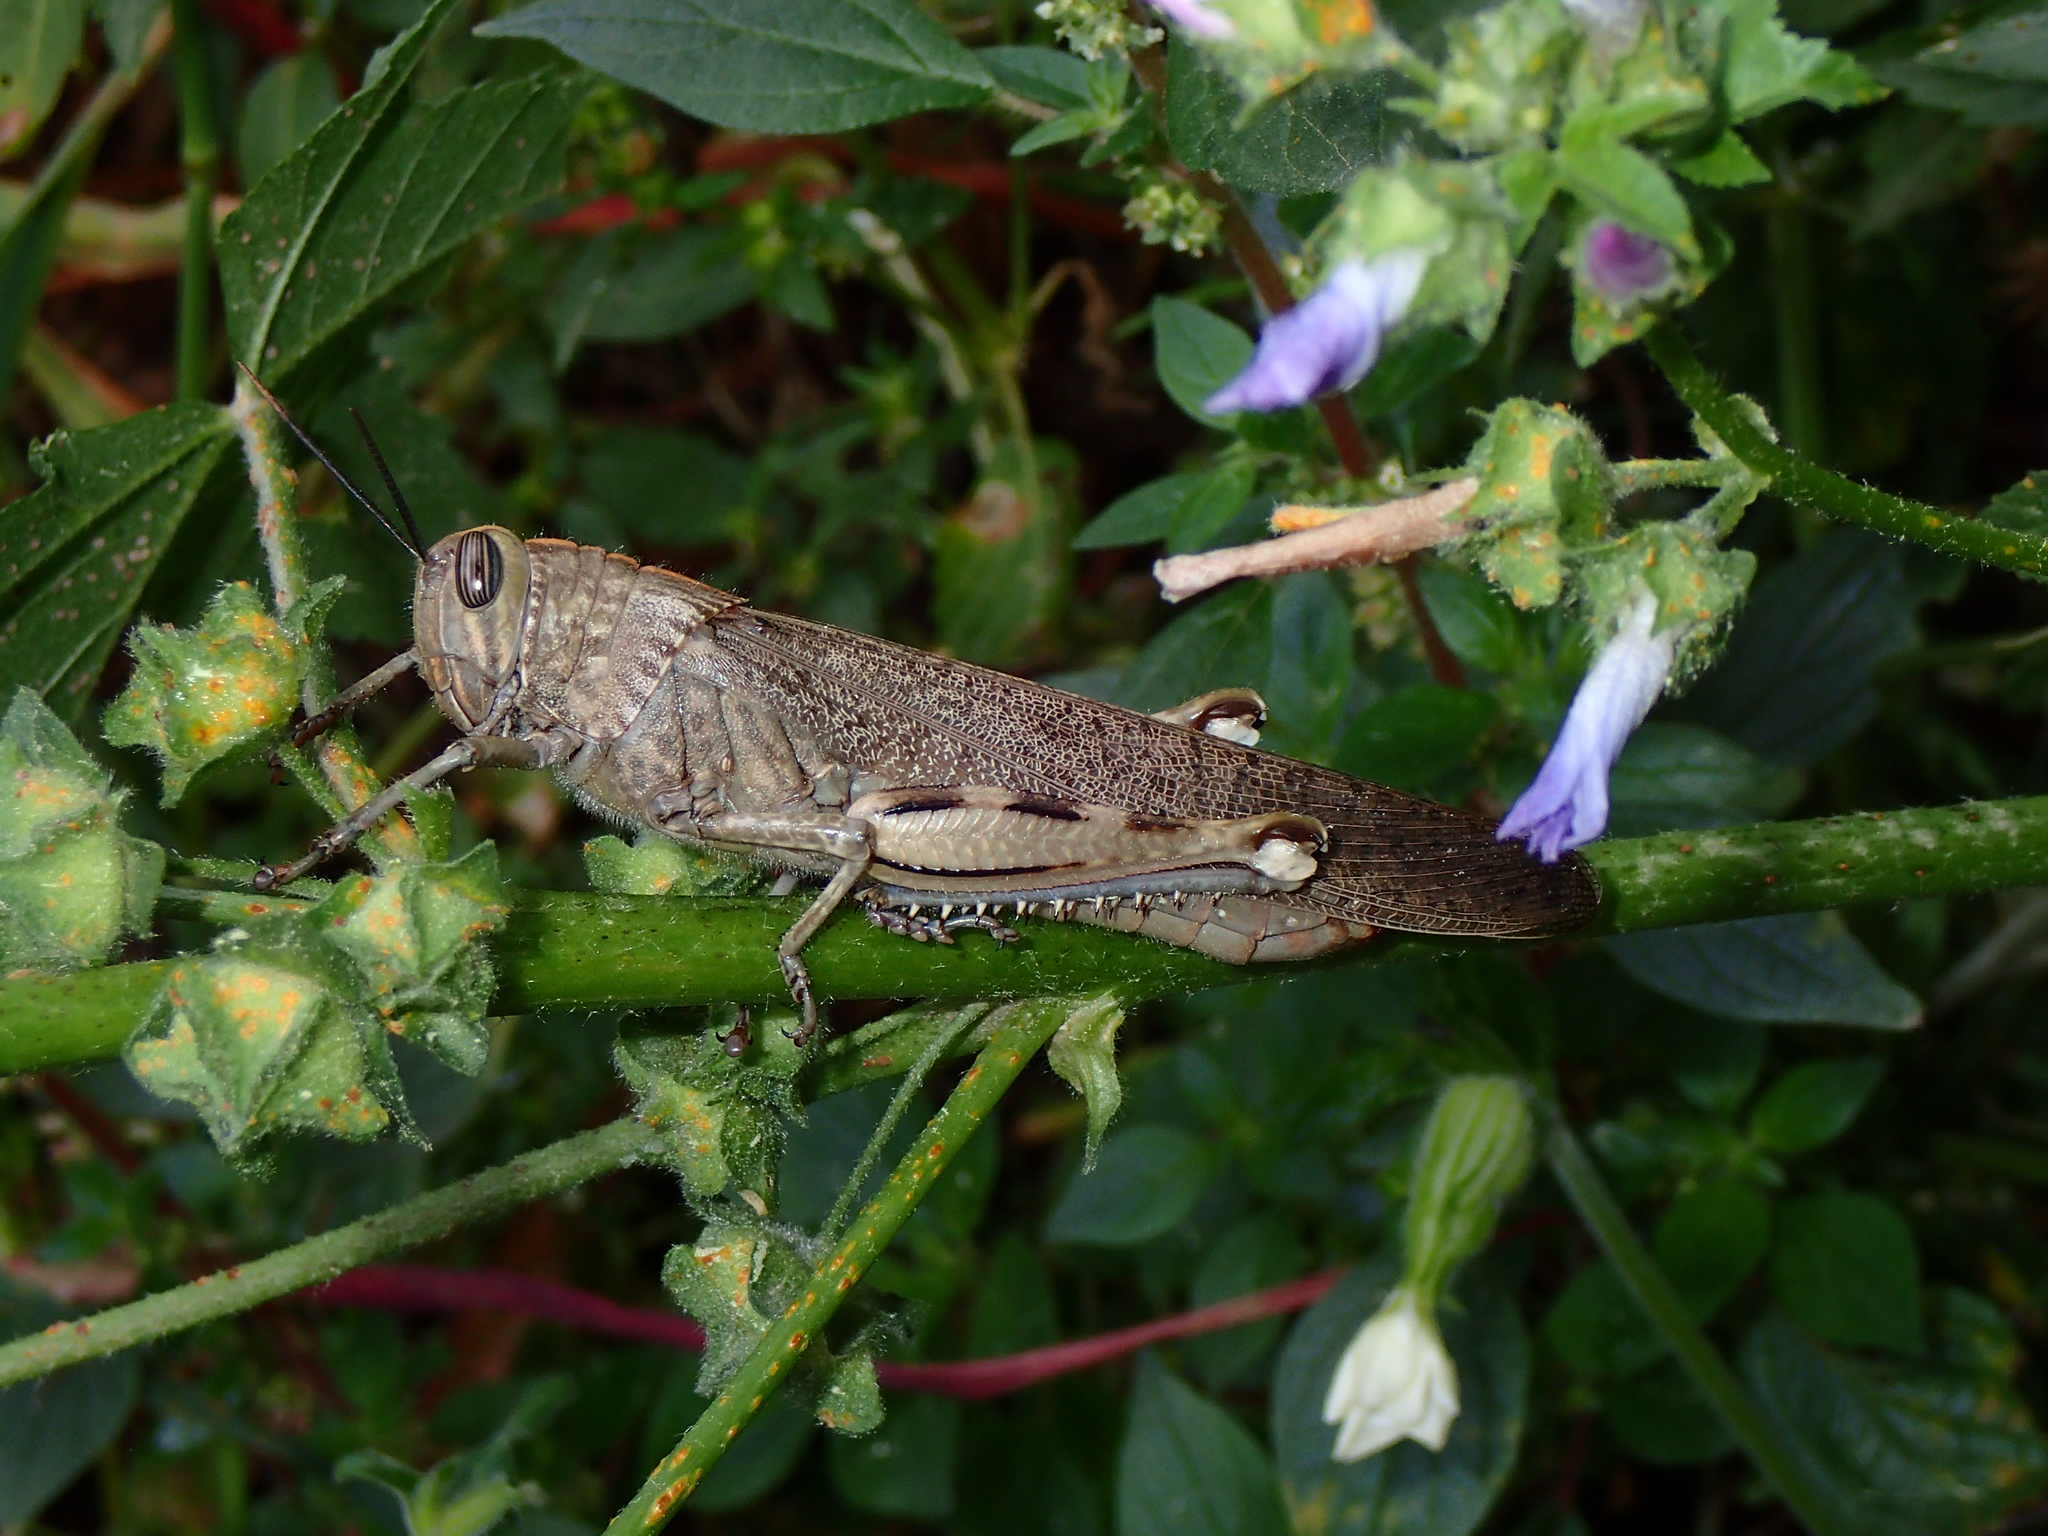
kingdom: Animalia
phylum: Arthropoda
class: Insecta
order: Orthoptera
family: Acrididae
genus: Anacridium
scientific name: Anacridium aegyptium
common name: Egyptian grasshopper
